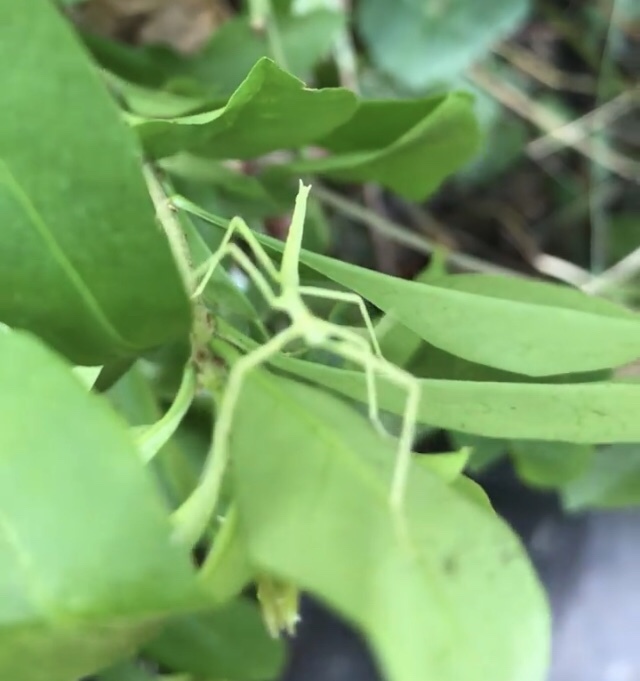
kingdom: Animalia
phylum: Arthropoda
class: Insecta
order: Phasmida
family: Diapheromeridae
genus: Diapheromera
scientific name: Diapheromera femorata
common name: Common american walkingstick
